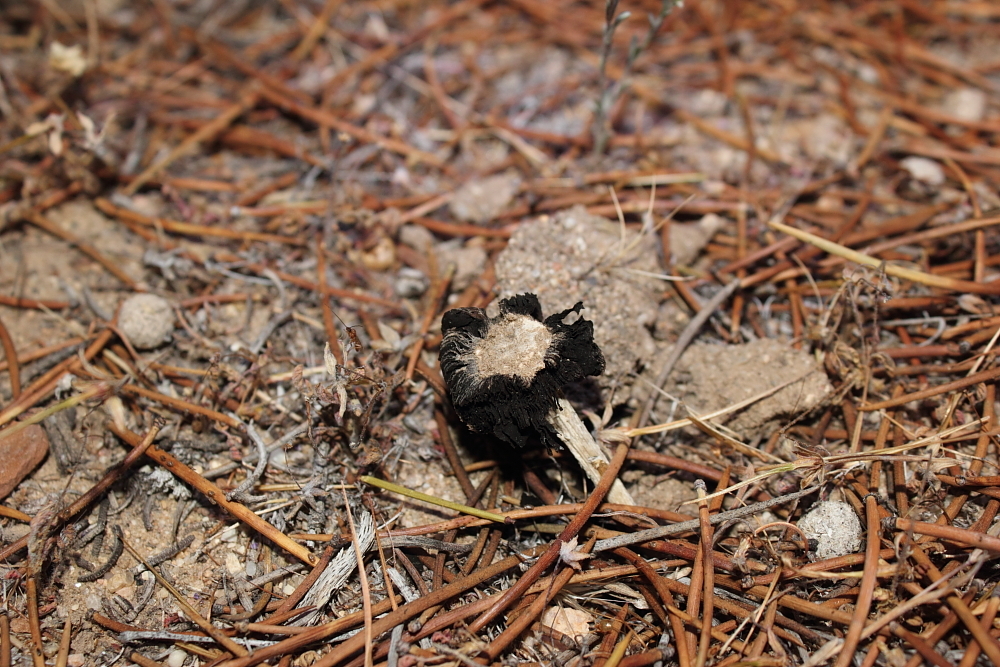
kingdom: Fungi
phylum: Basidiomycota
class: Agaricomycetes
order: Agaricales
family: Agaricaceae
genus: Montagnea
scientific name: Montagnea arenaria
